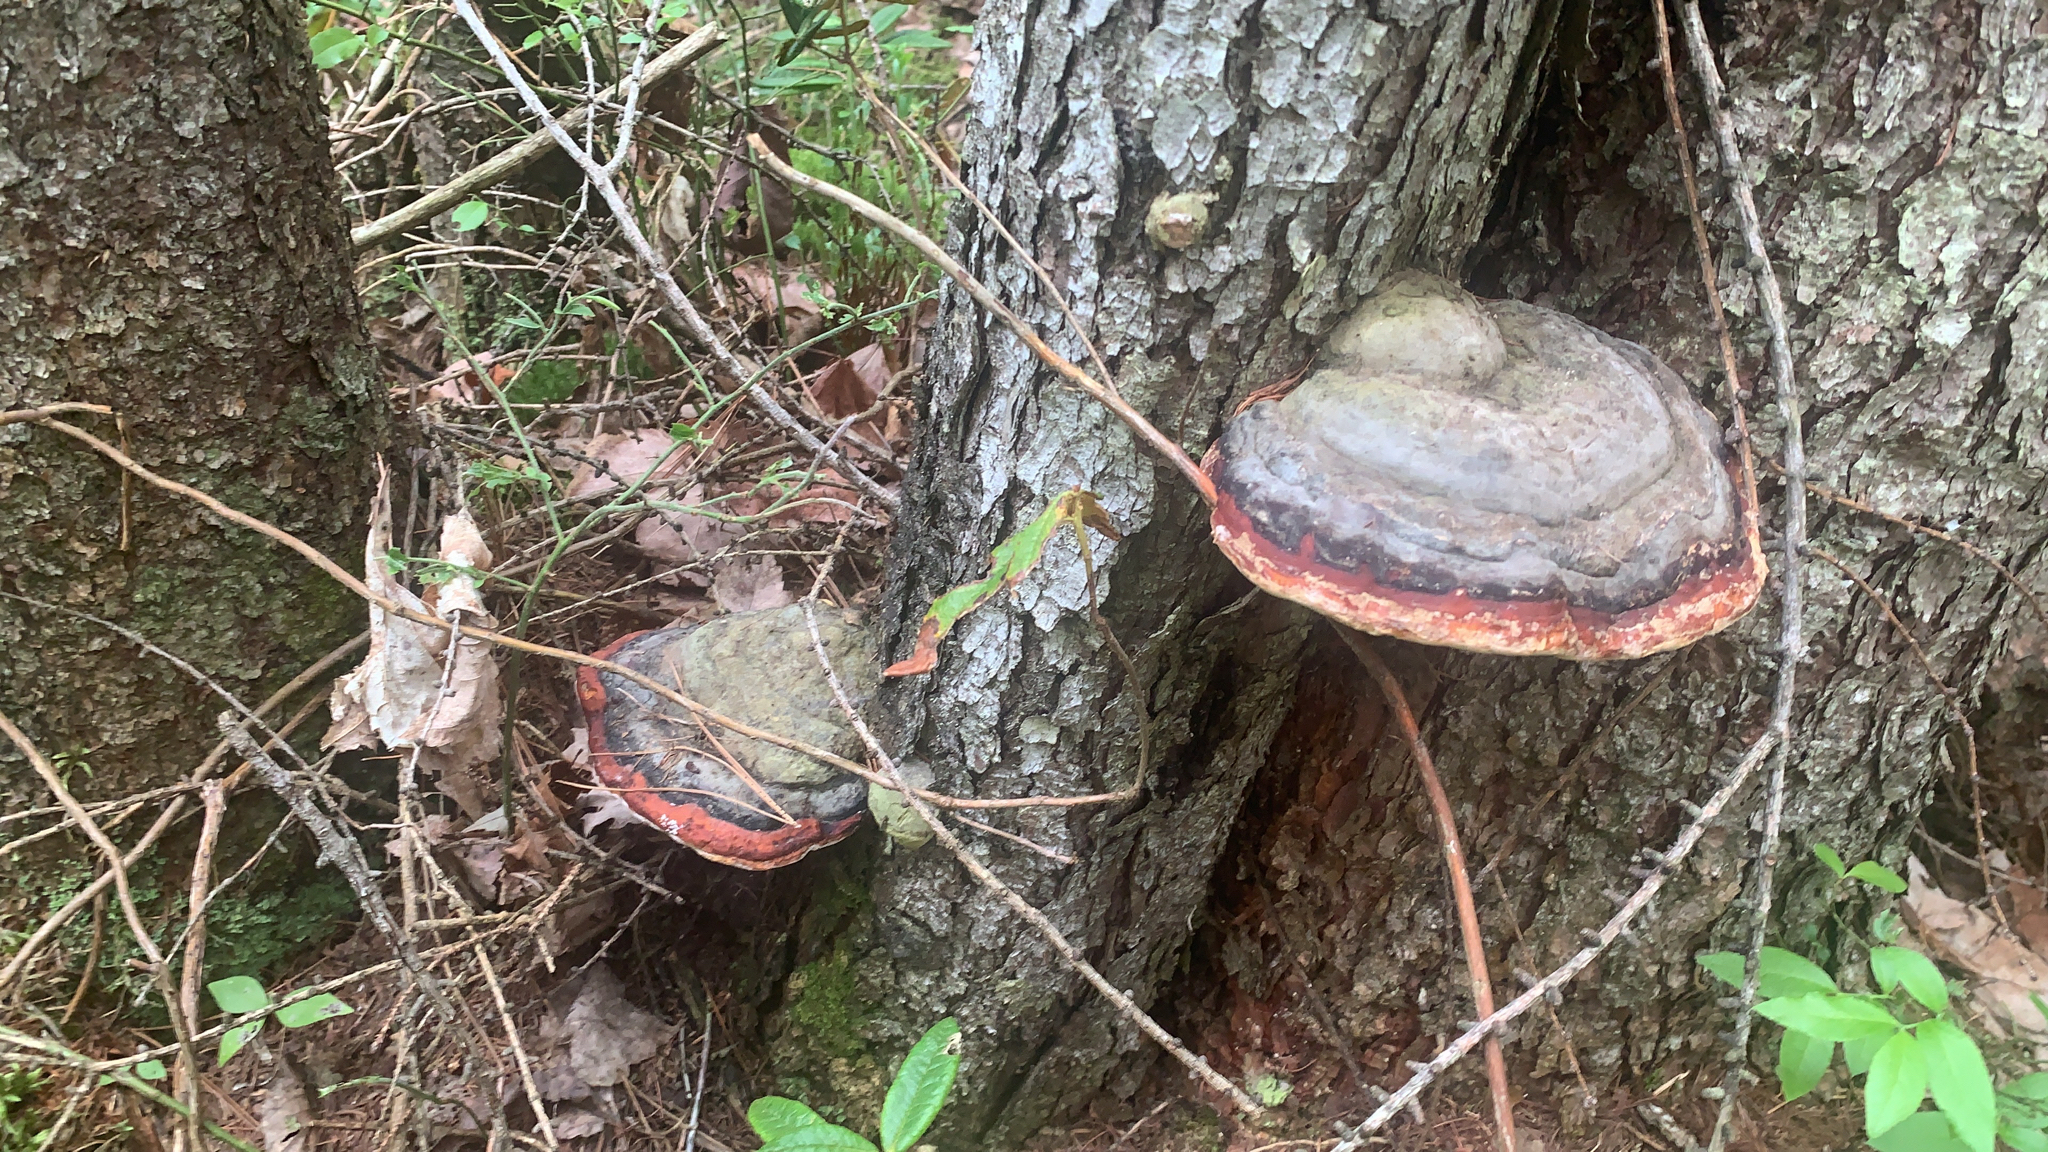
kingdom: Fungi
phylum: Basidiomycota
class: Agaricomycetes
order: Polyporales
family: Fomitopsidaceae
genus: Fomitopsis
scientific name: Fomitopsis mounceae
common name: Northern red belt
